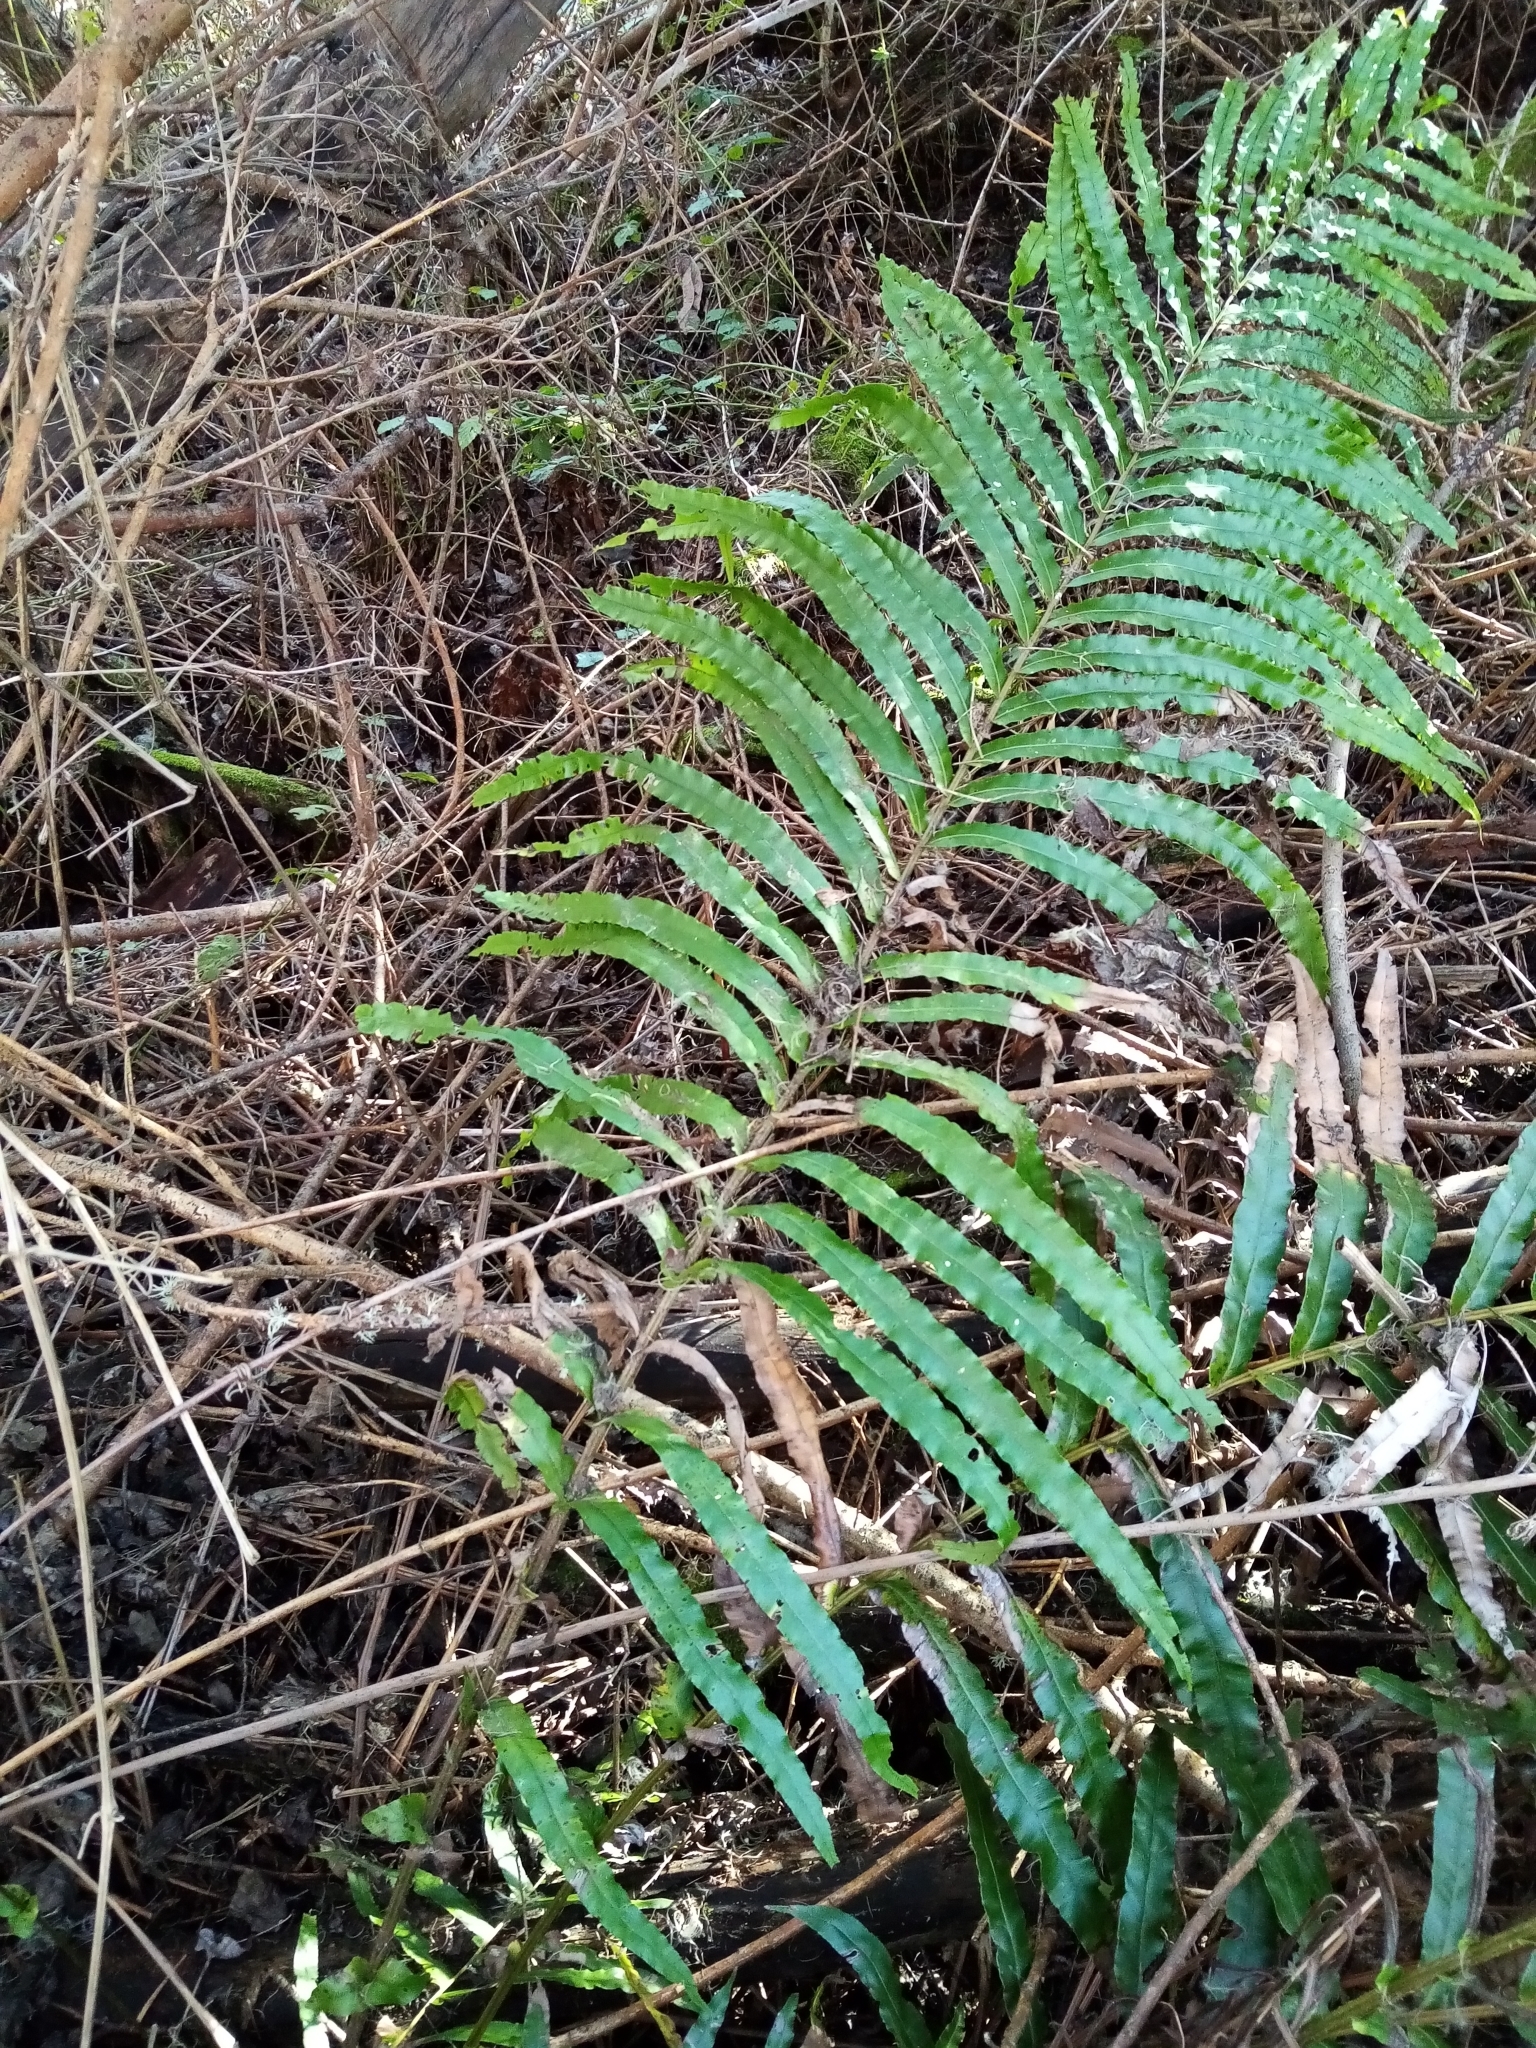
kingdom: Plantae
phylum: Tracheophyta
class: Polypodiopsida
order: Polypodiales
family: Blechnaceae
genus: Parablechnum
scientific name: Parablechnum minus
